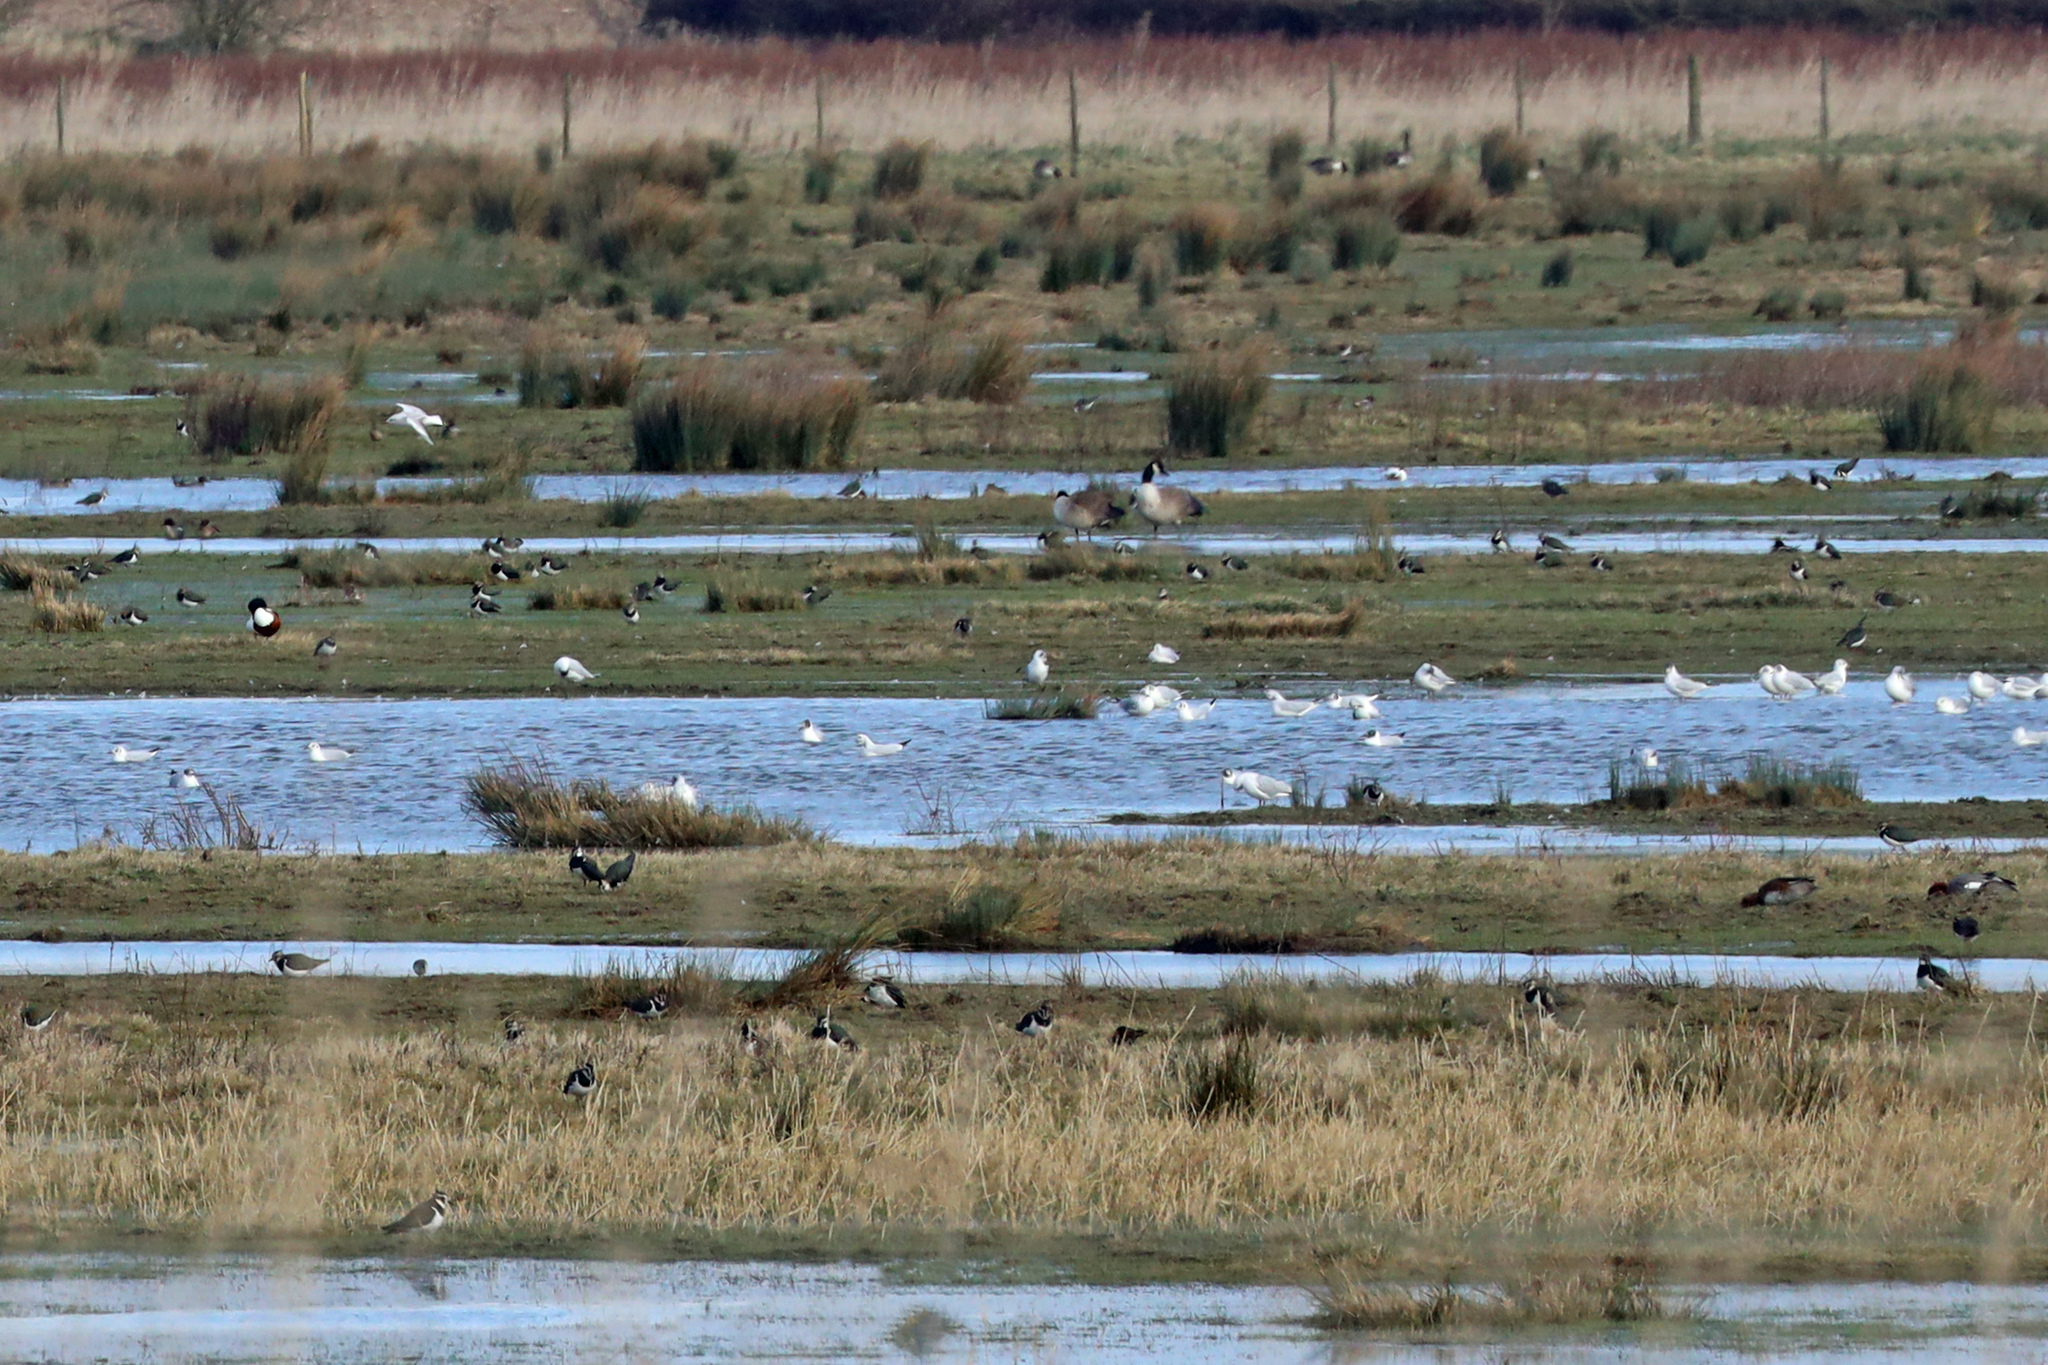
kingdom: Animalia
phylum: Chordata
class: Aves
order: Charadriiformes
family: Charadriidae
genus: Vanellus
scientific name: Vanellus vanellus
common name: Northern lapwing
